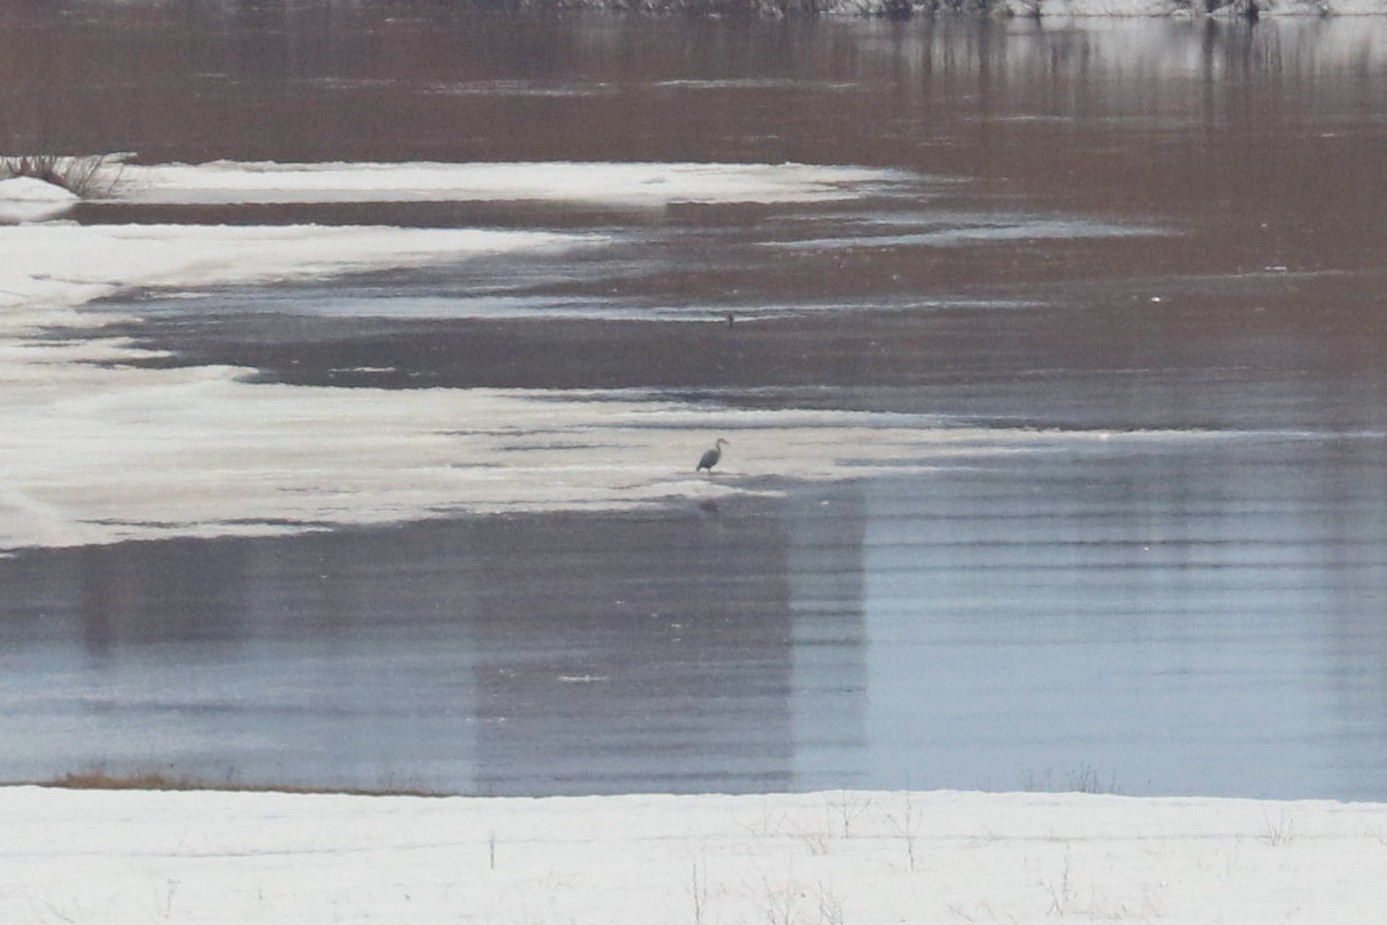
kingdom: Animalia
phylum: Chordata
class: Aves
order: Pelecaniformes
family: Ardeidae
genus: Ardea
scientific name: Ardea cinerea
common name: Grey heron
